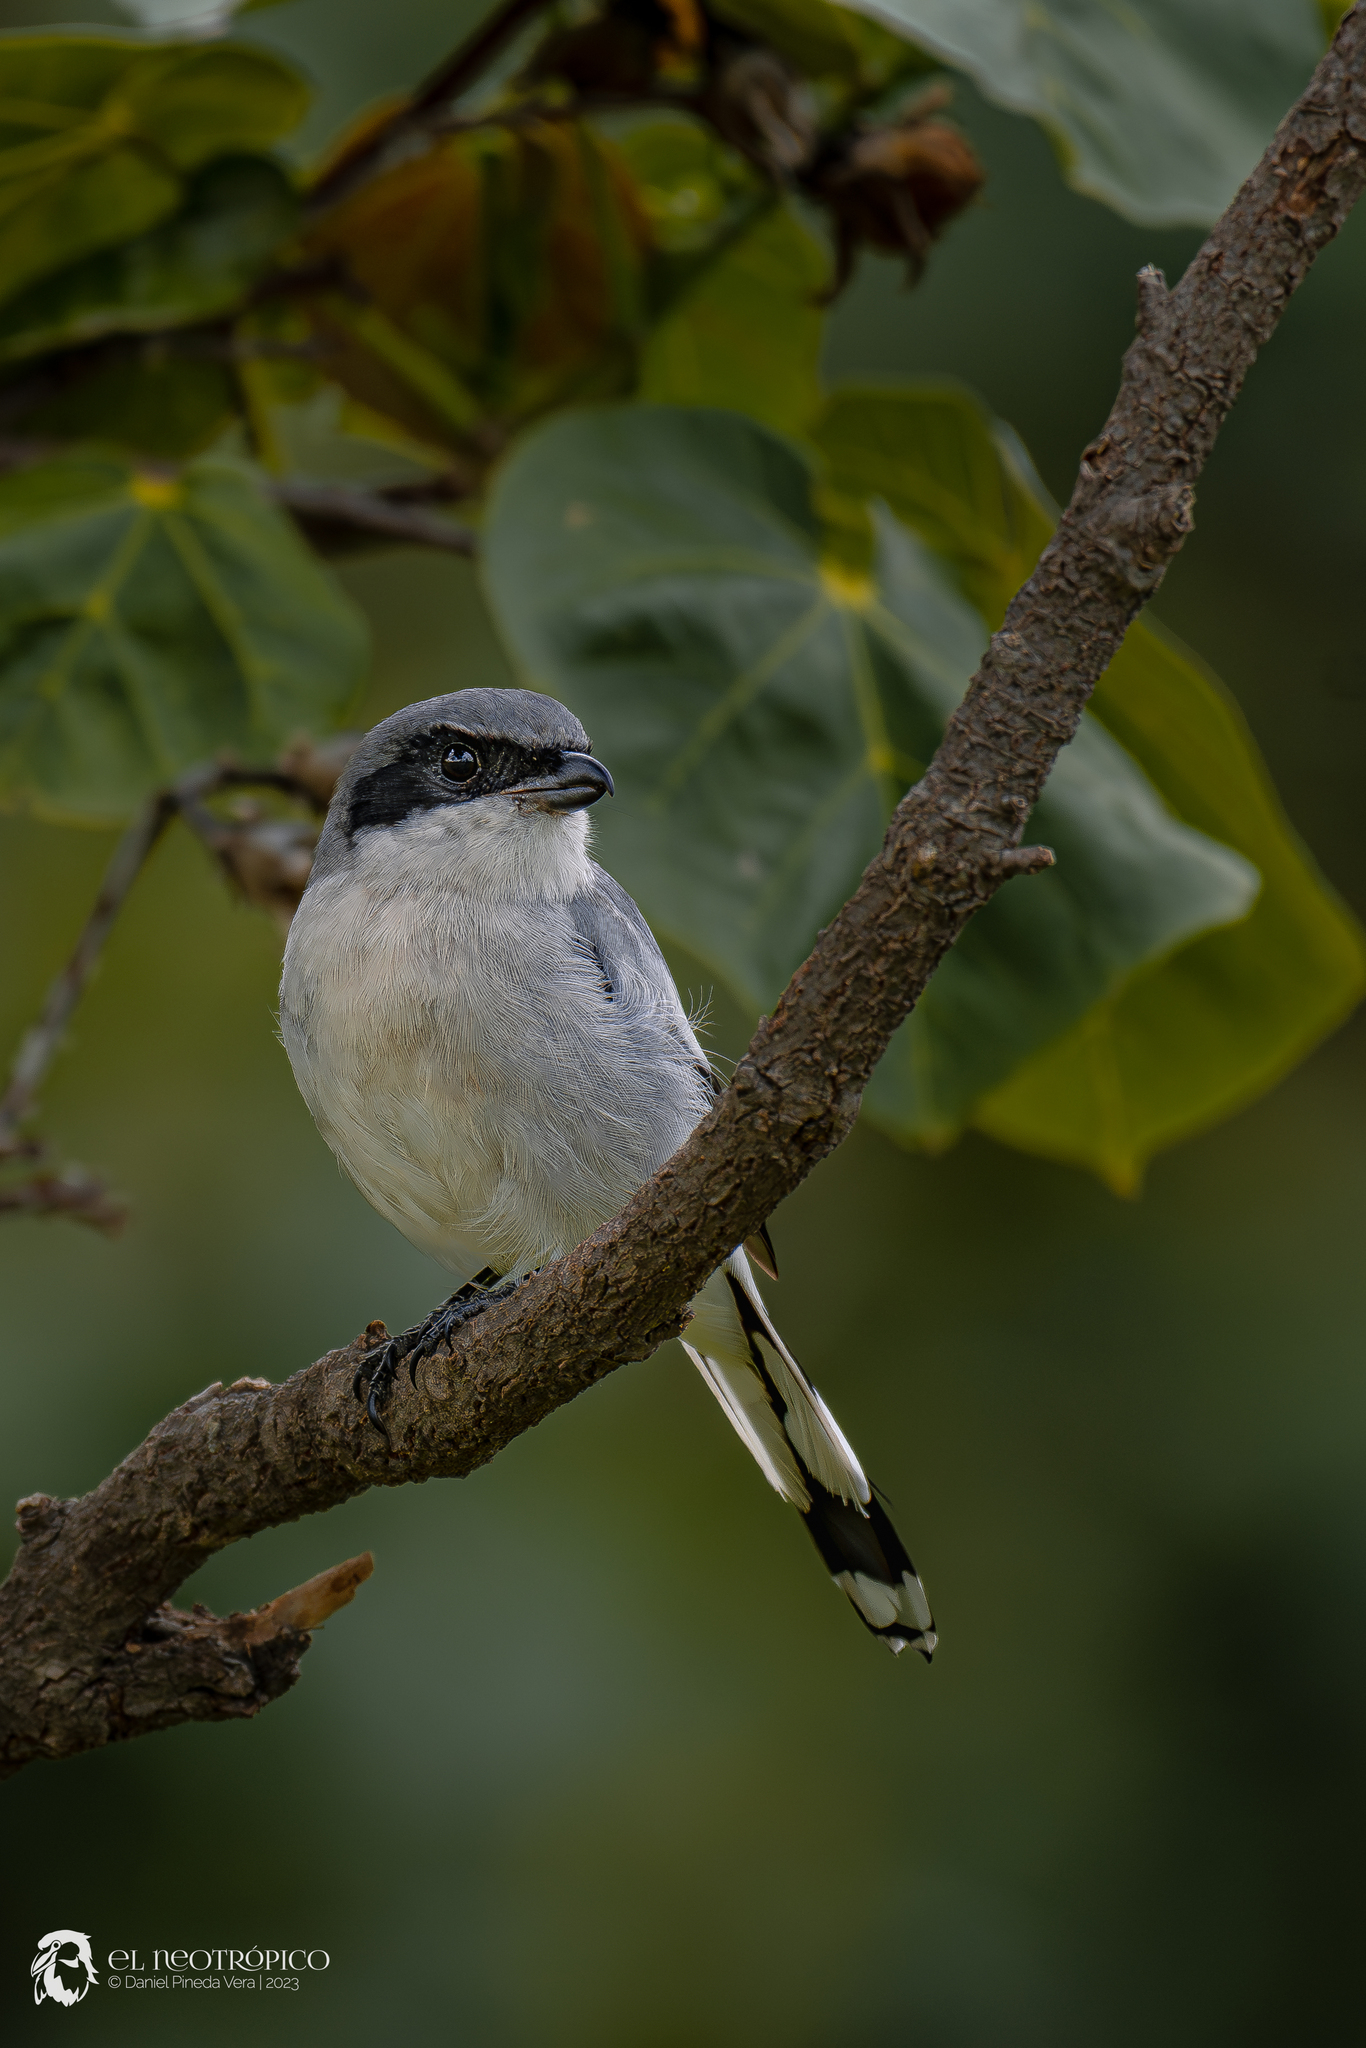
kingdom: Animalia
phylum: Chordata
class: Aves
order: Passeriformes
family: Laniidae
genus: Lanius
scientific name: Lanius ludovicianus
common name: Loggerhead shrike
